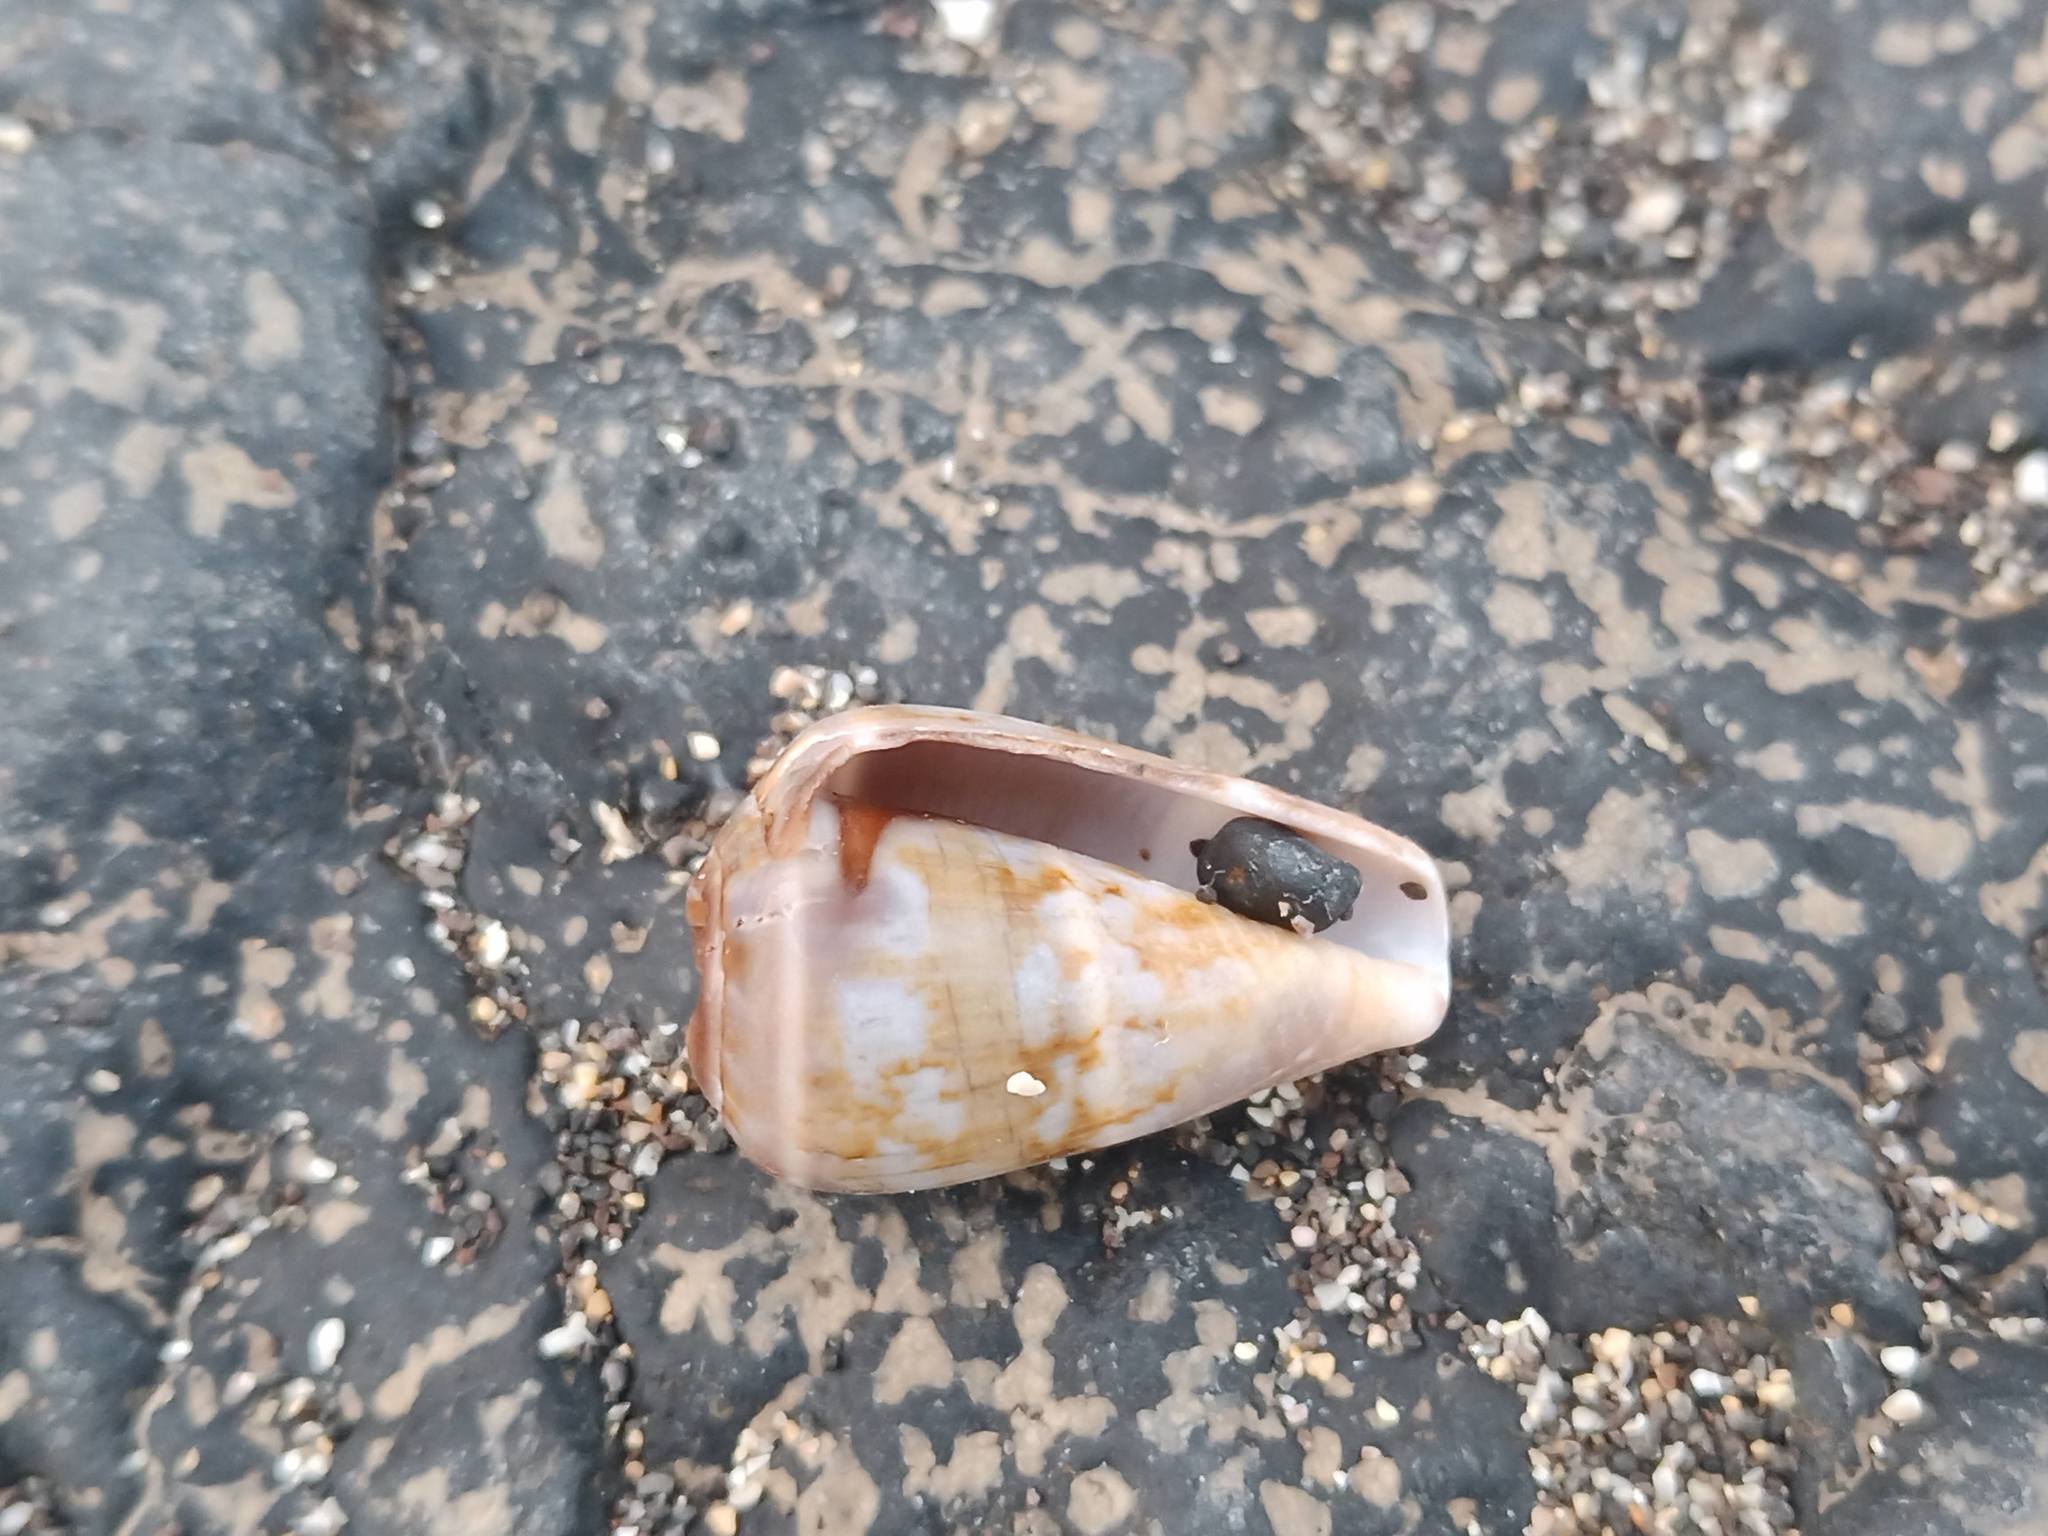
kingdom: Animalia
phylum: Mollusca
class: Gastropoda
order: Neogastropoda
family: Conidae
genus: Conus
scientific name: Conus guanche
